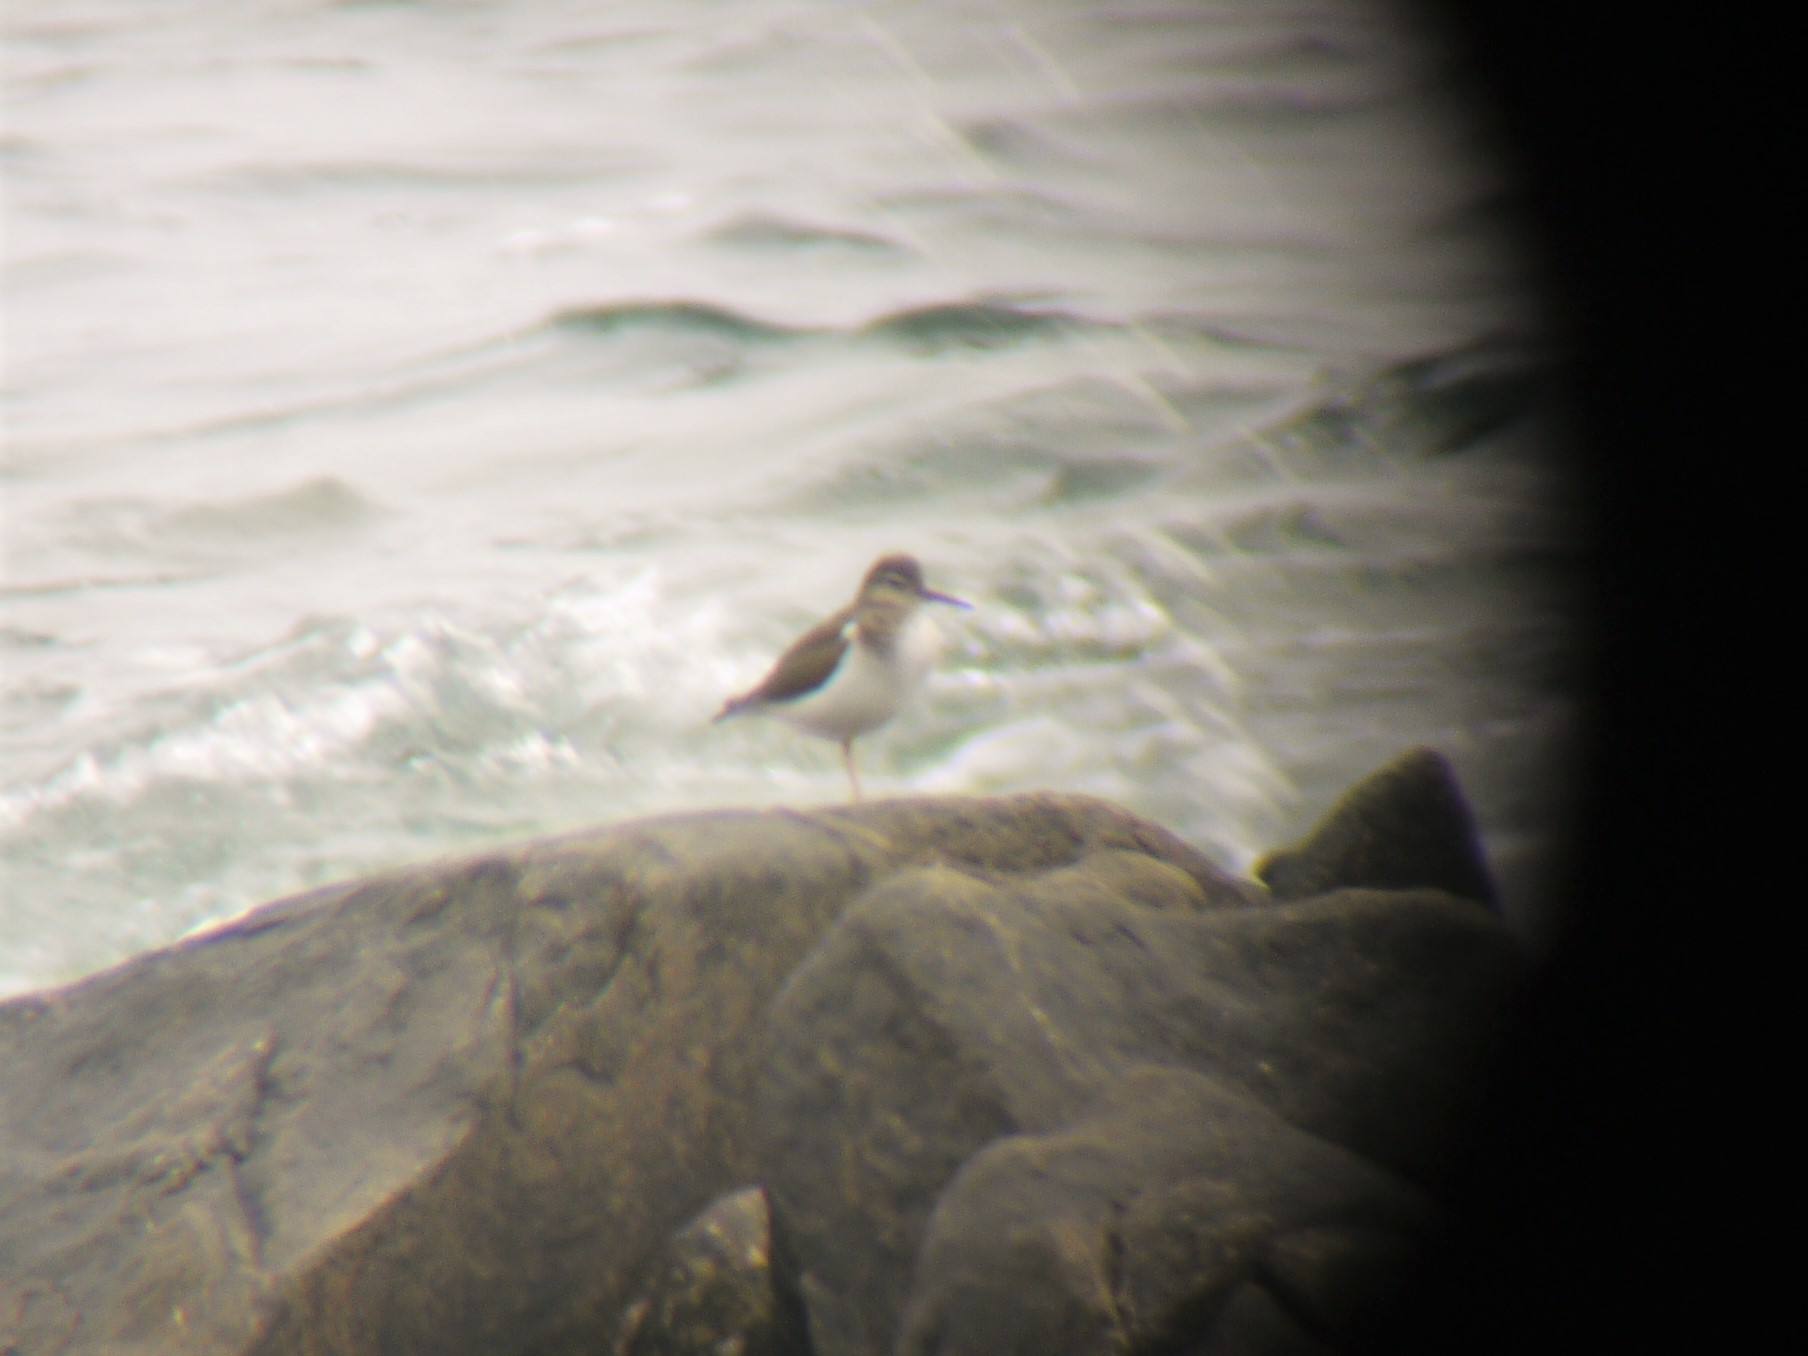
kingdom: Animalia
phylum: Chordata
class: Aves
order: Charadriiformes
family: Scolopacidae
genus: Actitis
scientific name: Actitis macularius
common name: Spotted sandpiper
